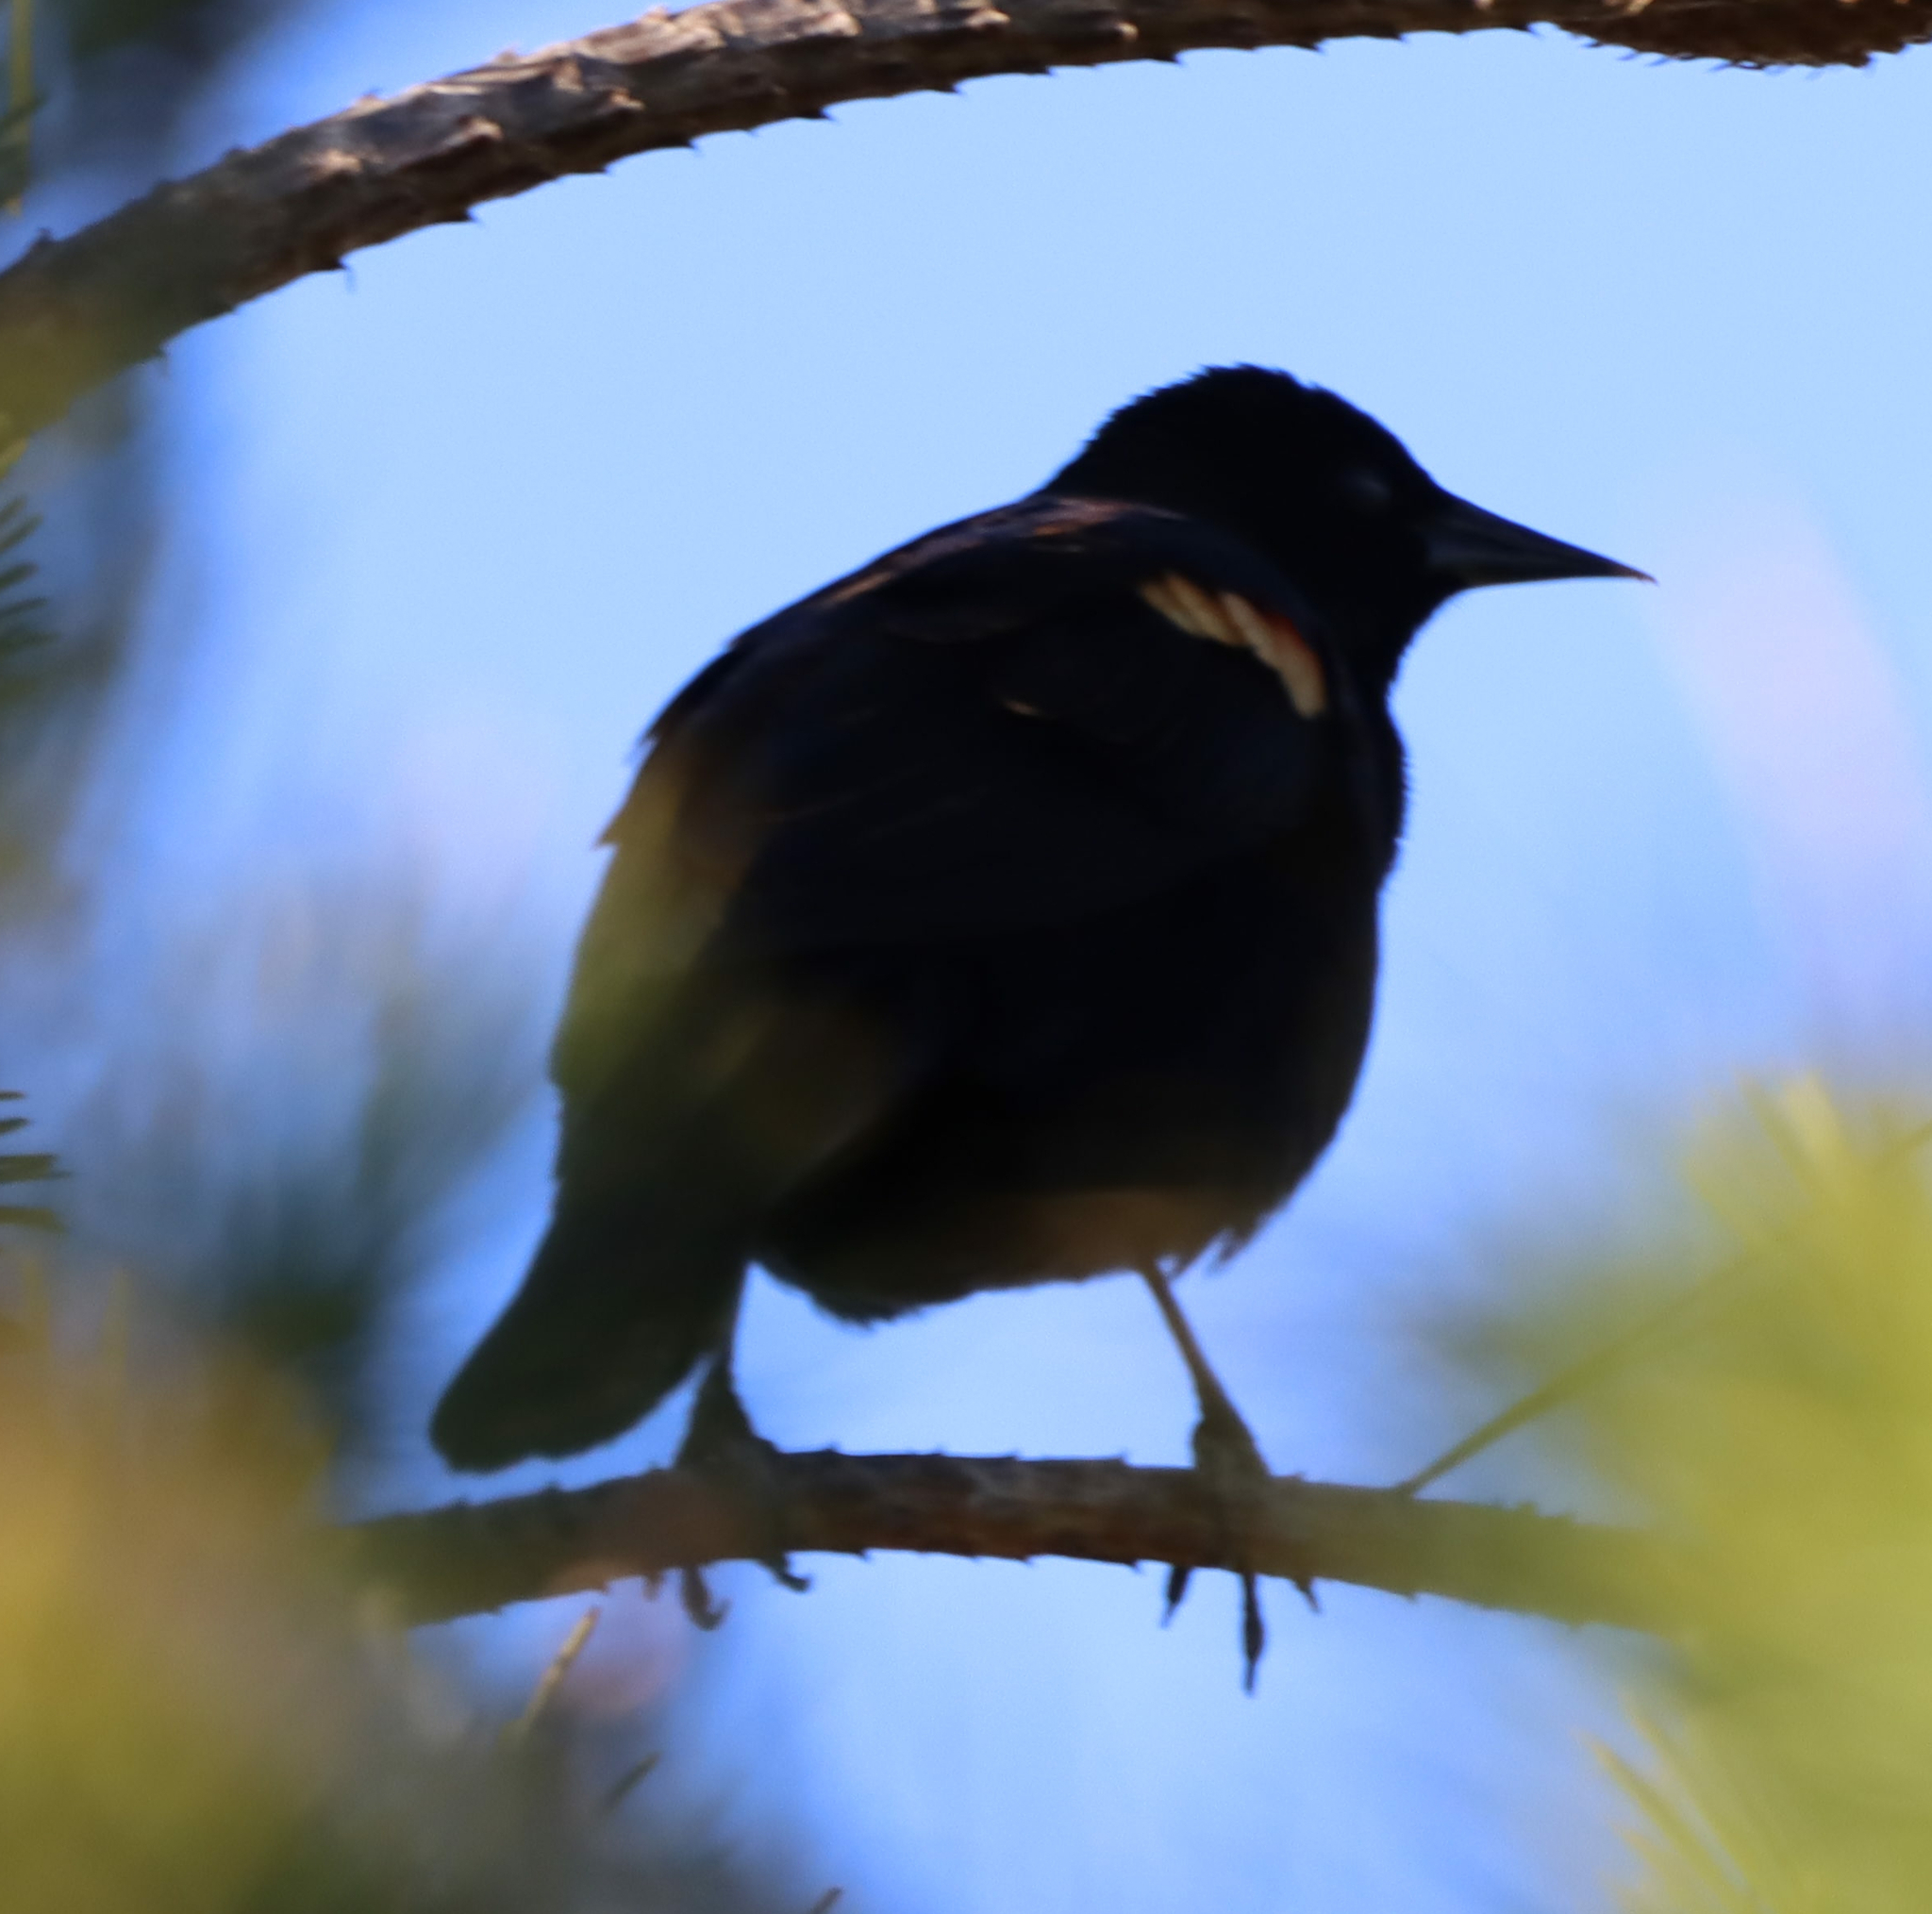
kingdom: Animalia
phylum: Chordata
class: Aves
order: Passeriformes
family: Icteridae
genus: Agelaius
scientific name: Agelaius phoeniceus
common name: Red-winged blackbird
